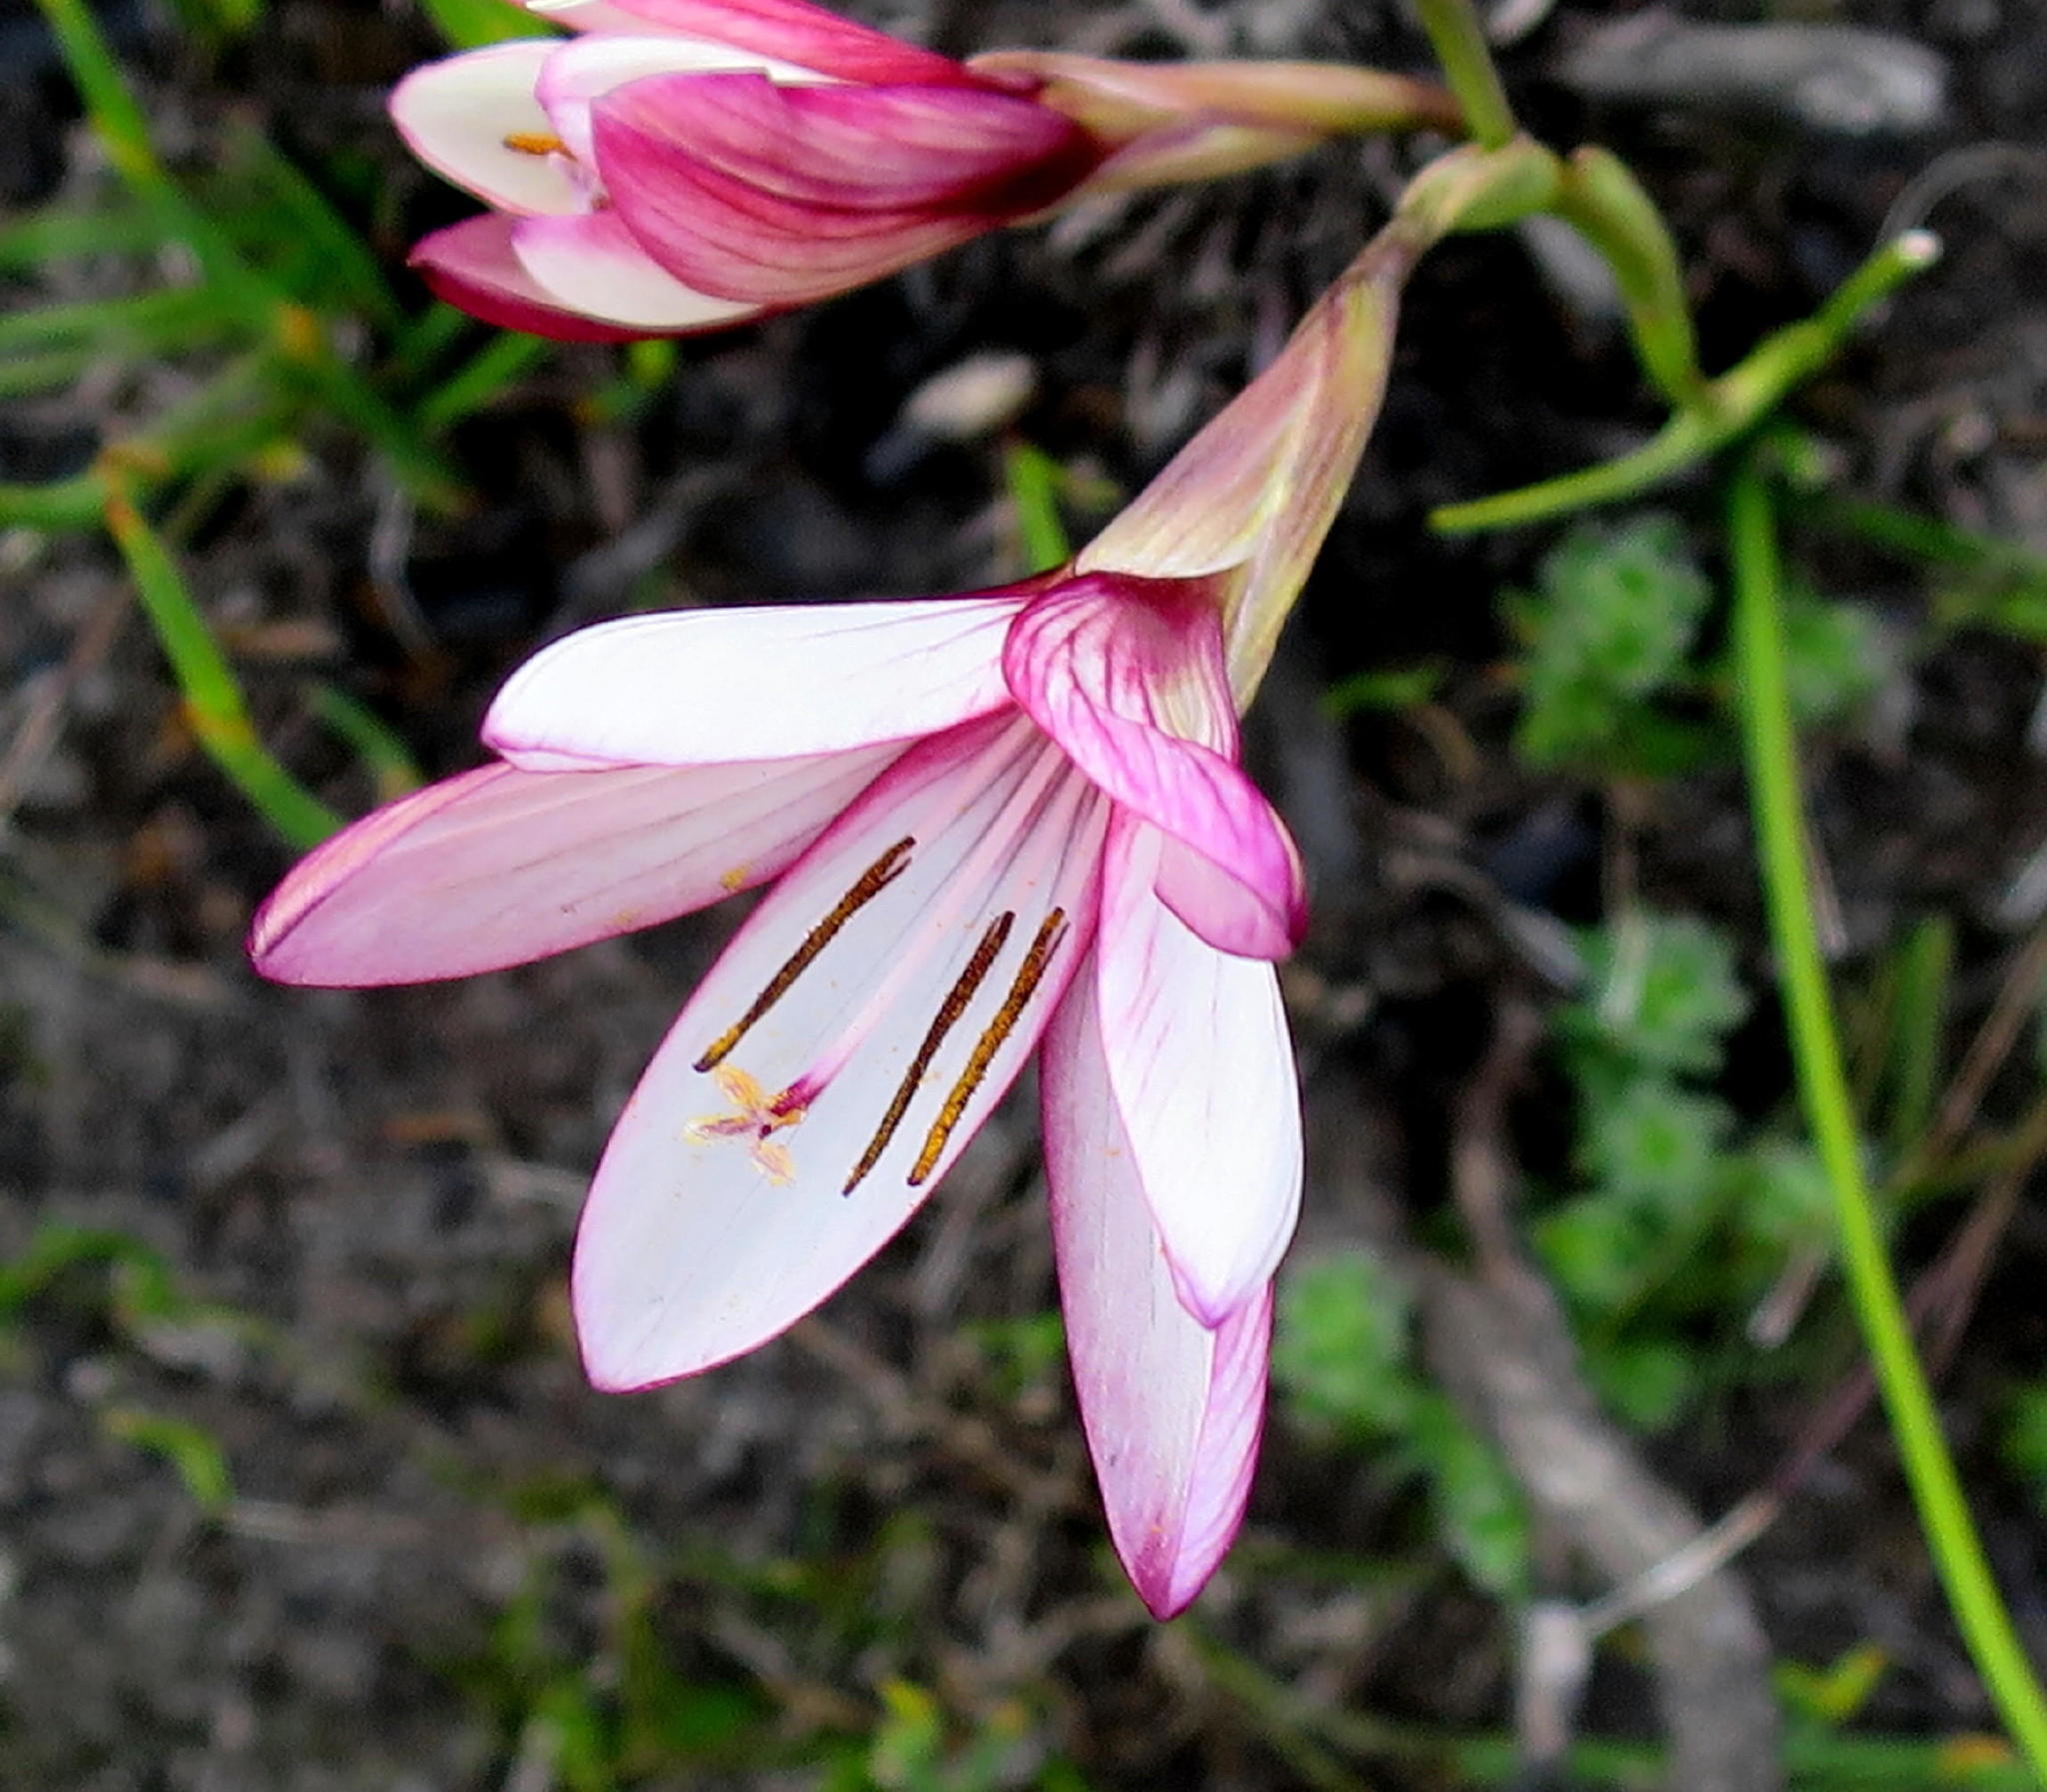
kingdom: Plantae
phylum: Tracheophyta
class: Liliopsida
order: Asparagales
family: Iridaceae
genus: Geissorhiza
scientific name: Geissorhiza fourcadei
